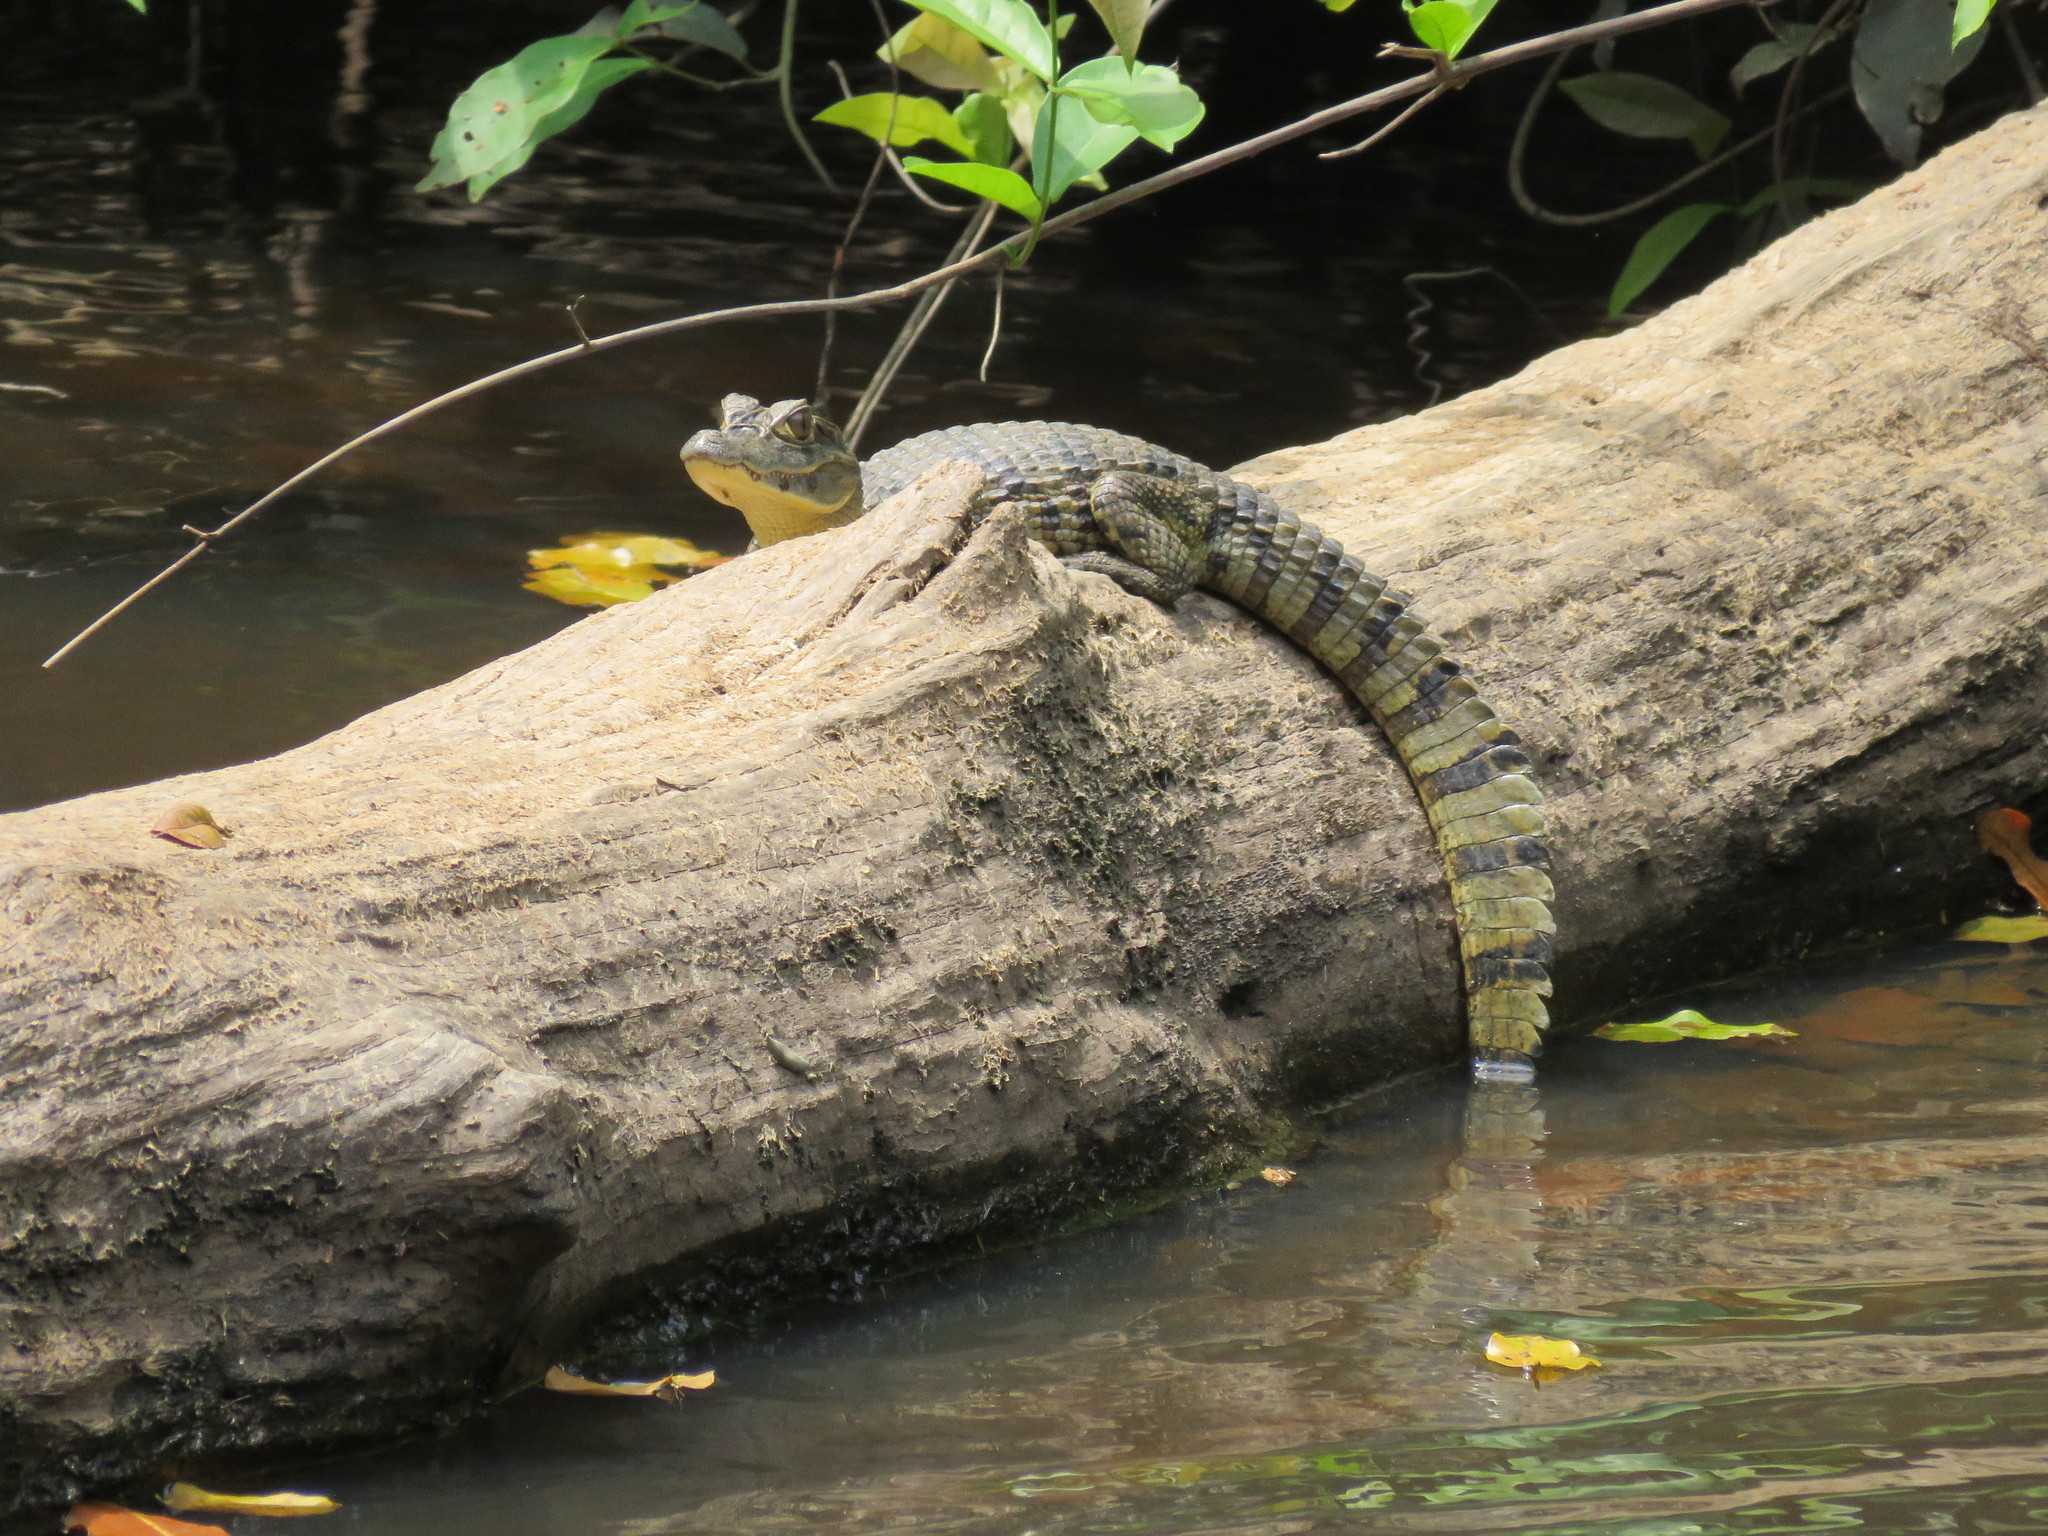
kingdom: Animalia
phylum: Chordata
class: Crocodylia
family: Alligatoridae
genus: Caiman
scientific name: Caiman yacare
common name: Yacare caiman
